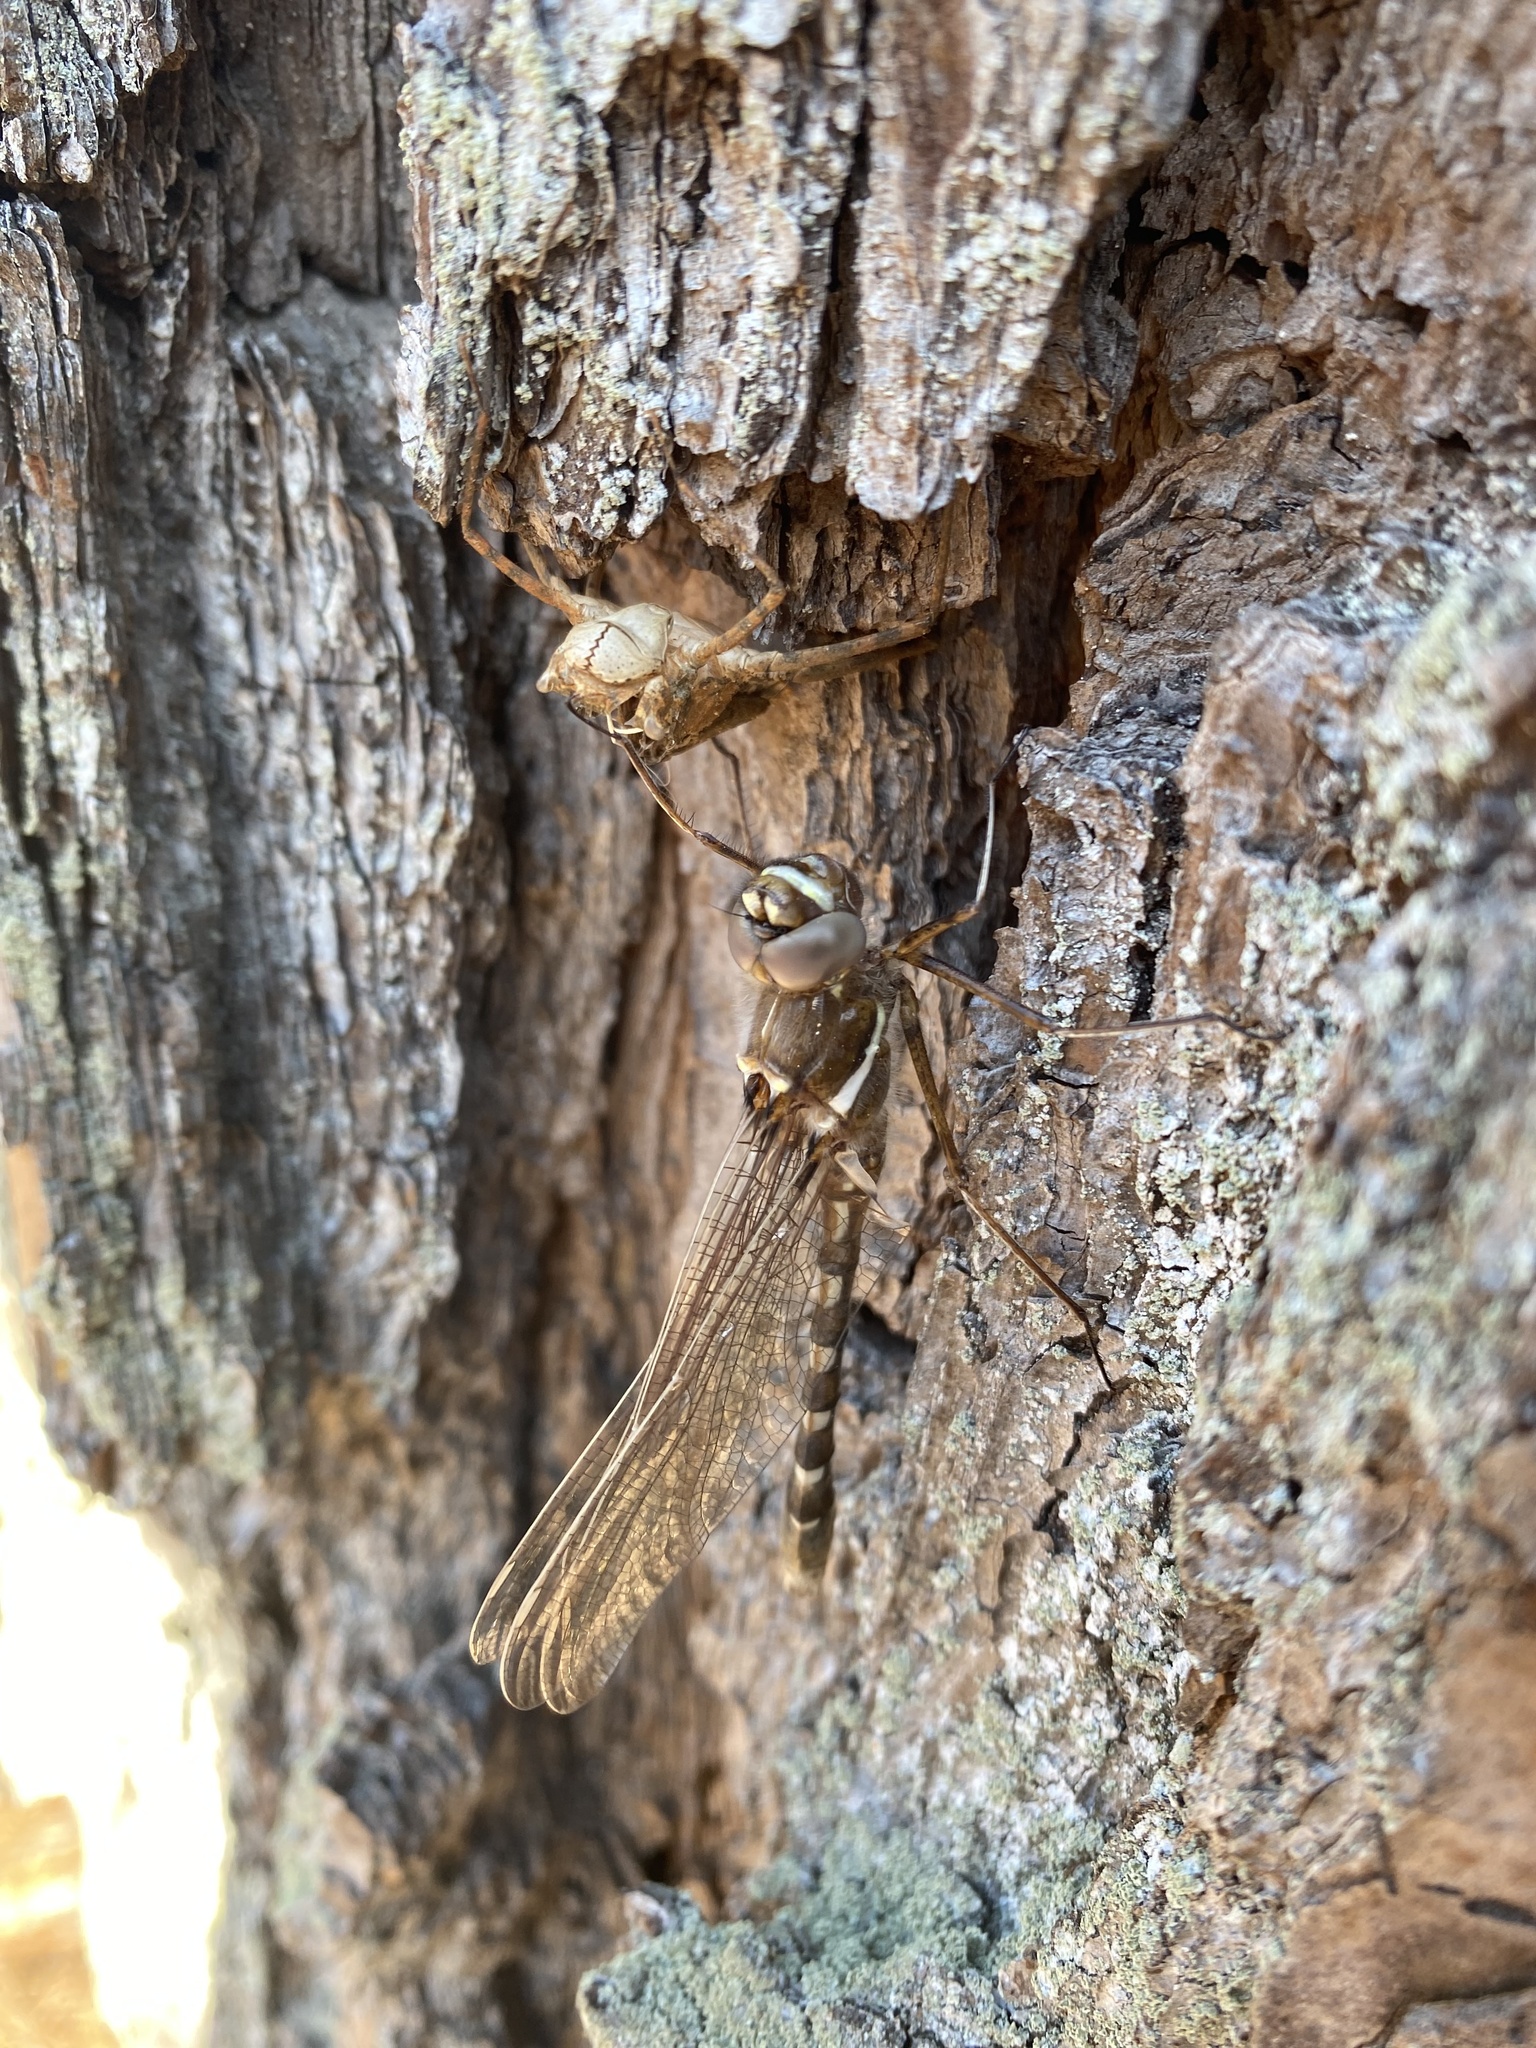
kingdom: Animalia
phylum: Arthropoda
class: Insecta
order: Odonata
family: Macromiidae
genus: Didymops
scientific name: Didymops transversa
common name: Stream cruiser
